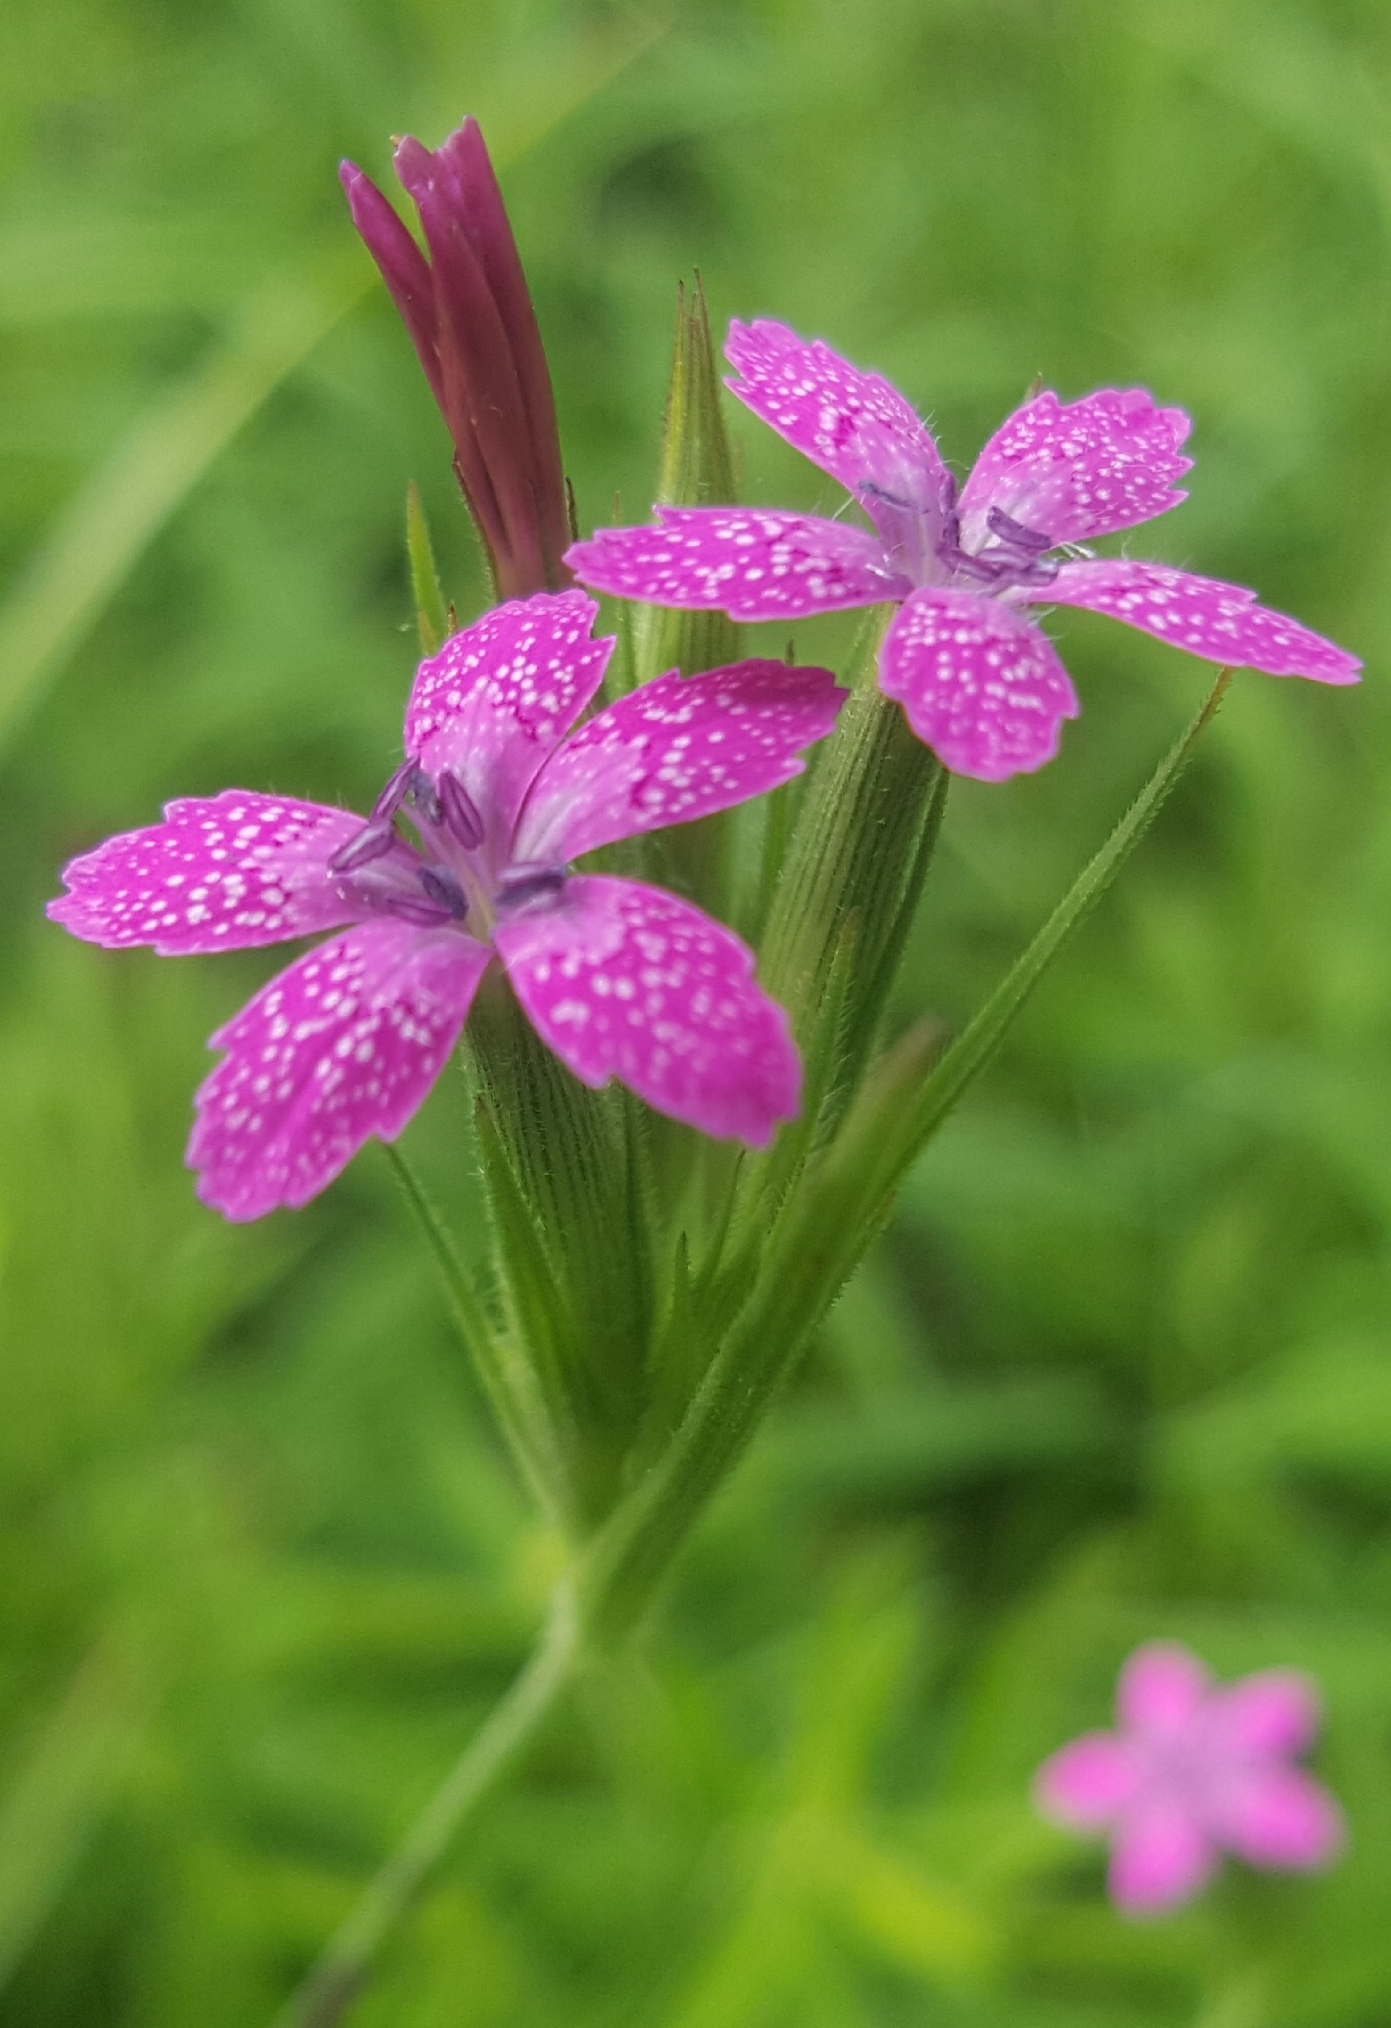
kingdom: Plantae
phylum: Tracheophyta
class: Magnoliopsida
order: Caryophyllales
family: Caryophyllaceae
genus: Dianthus
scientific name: Dianthus armeria
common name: Deptford pink
